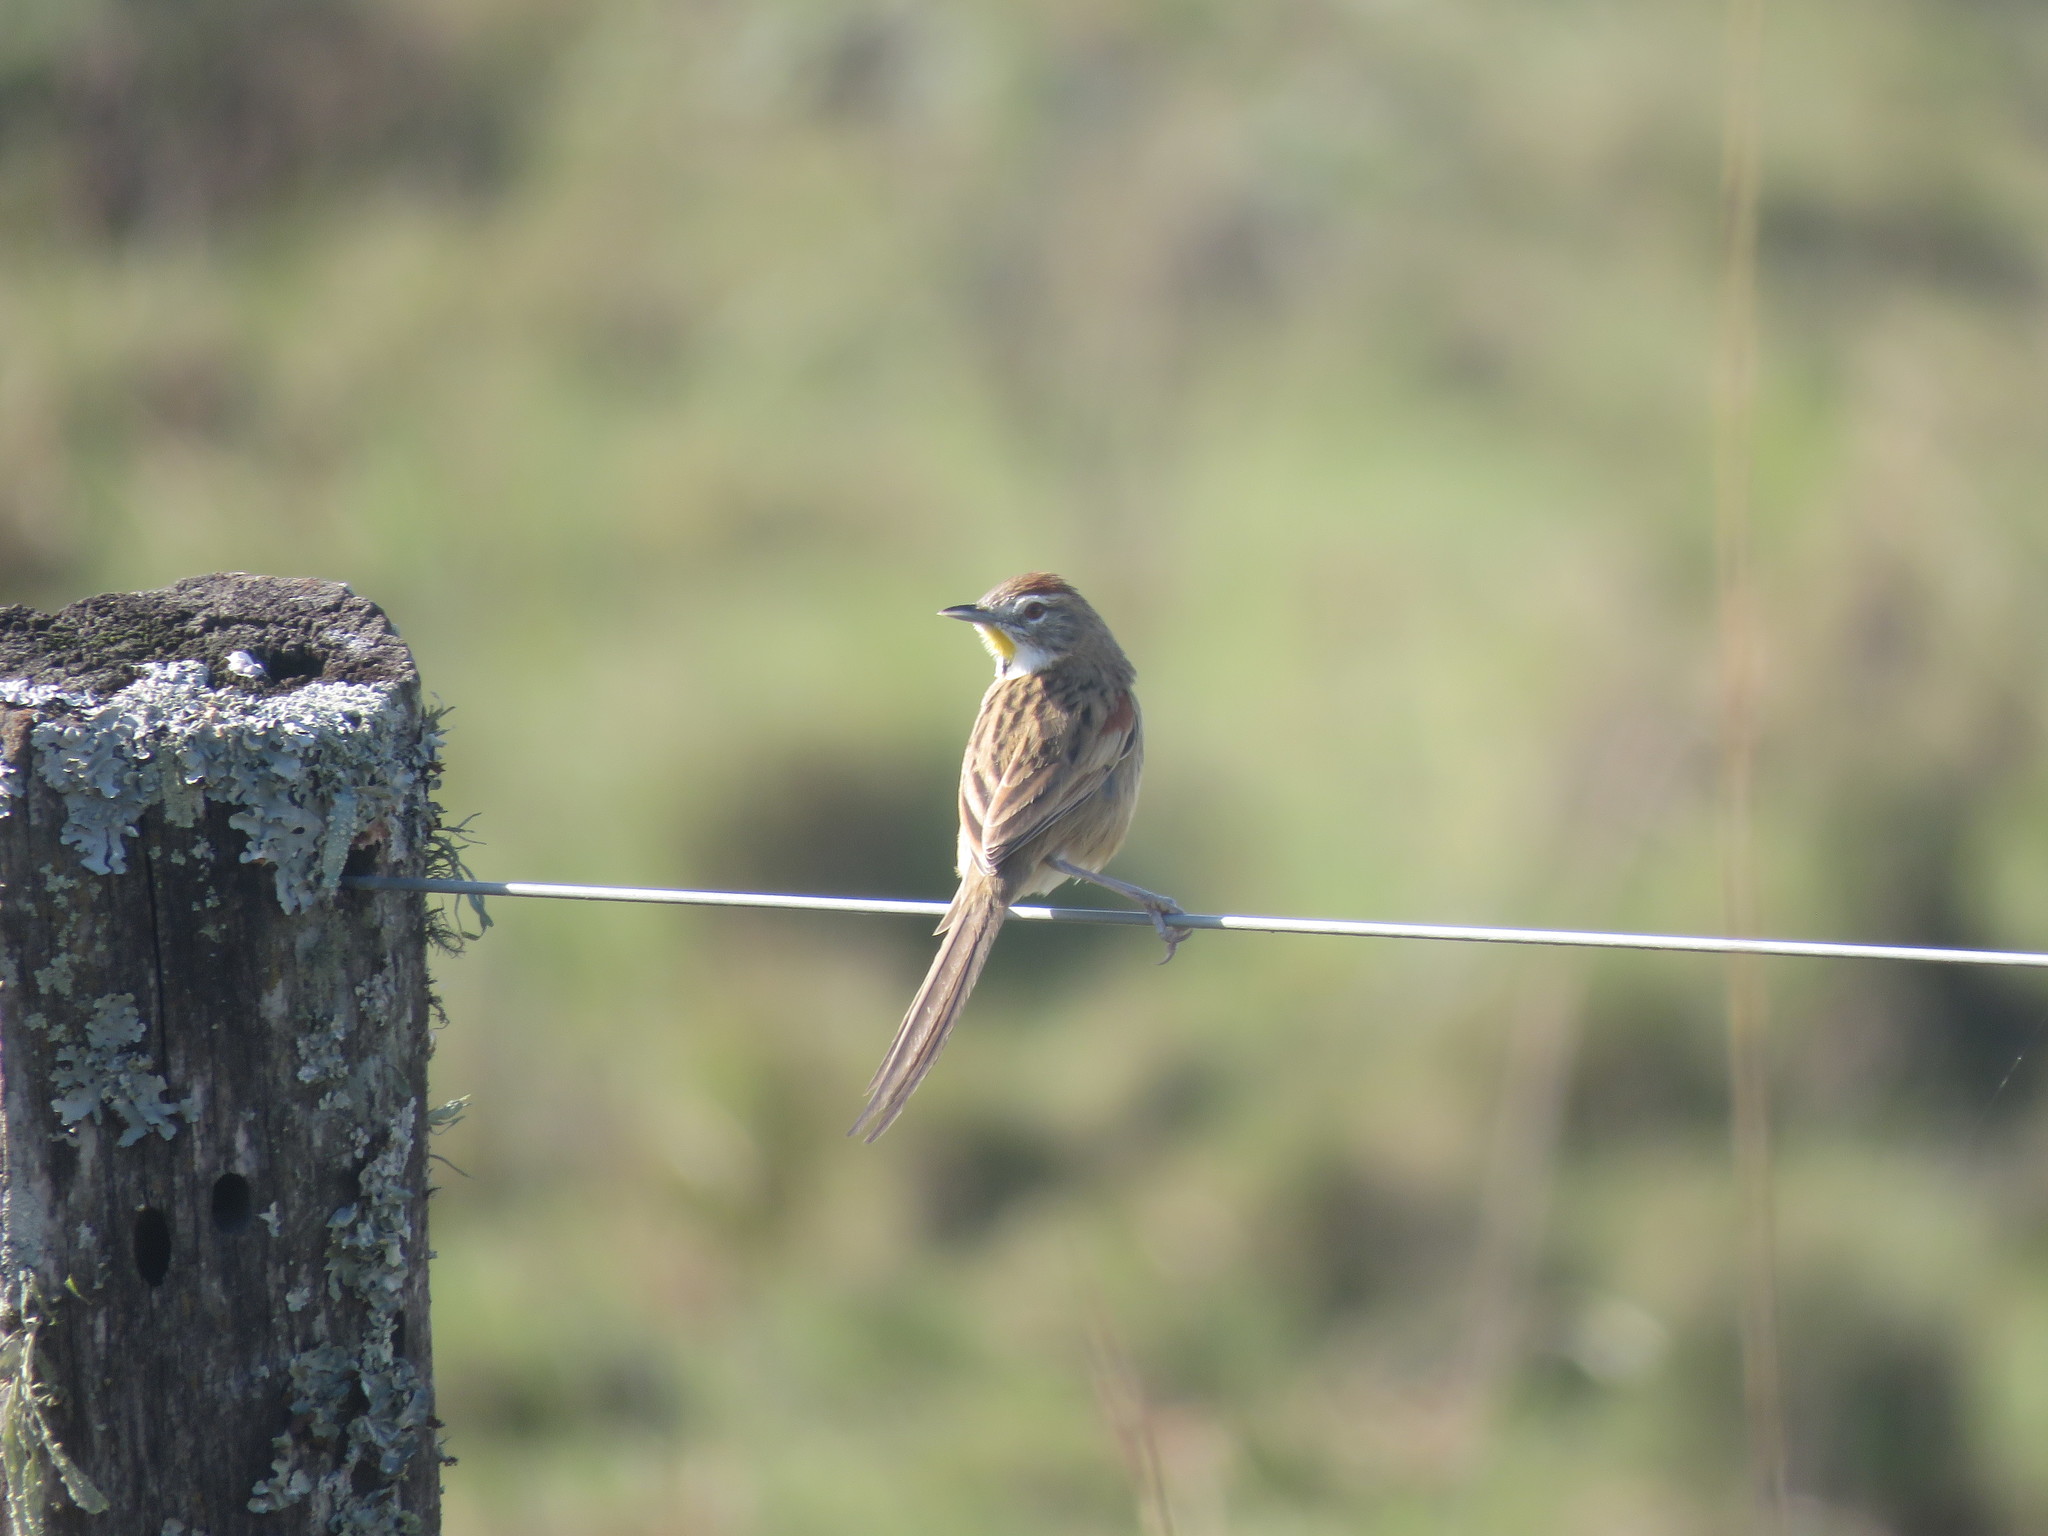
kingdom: Animalia
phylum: Chordata
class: Aves
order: Passeriformes
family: Furnariidae
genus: Schoeniophylax
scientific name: Schoeniophylax phryganophilus
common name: Chotoy spinetail
